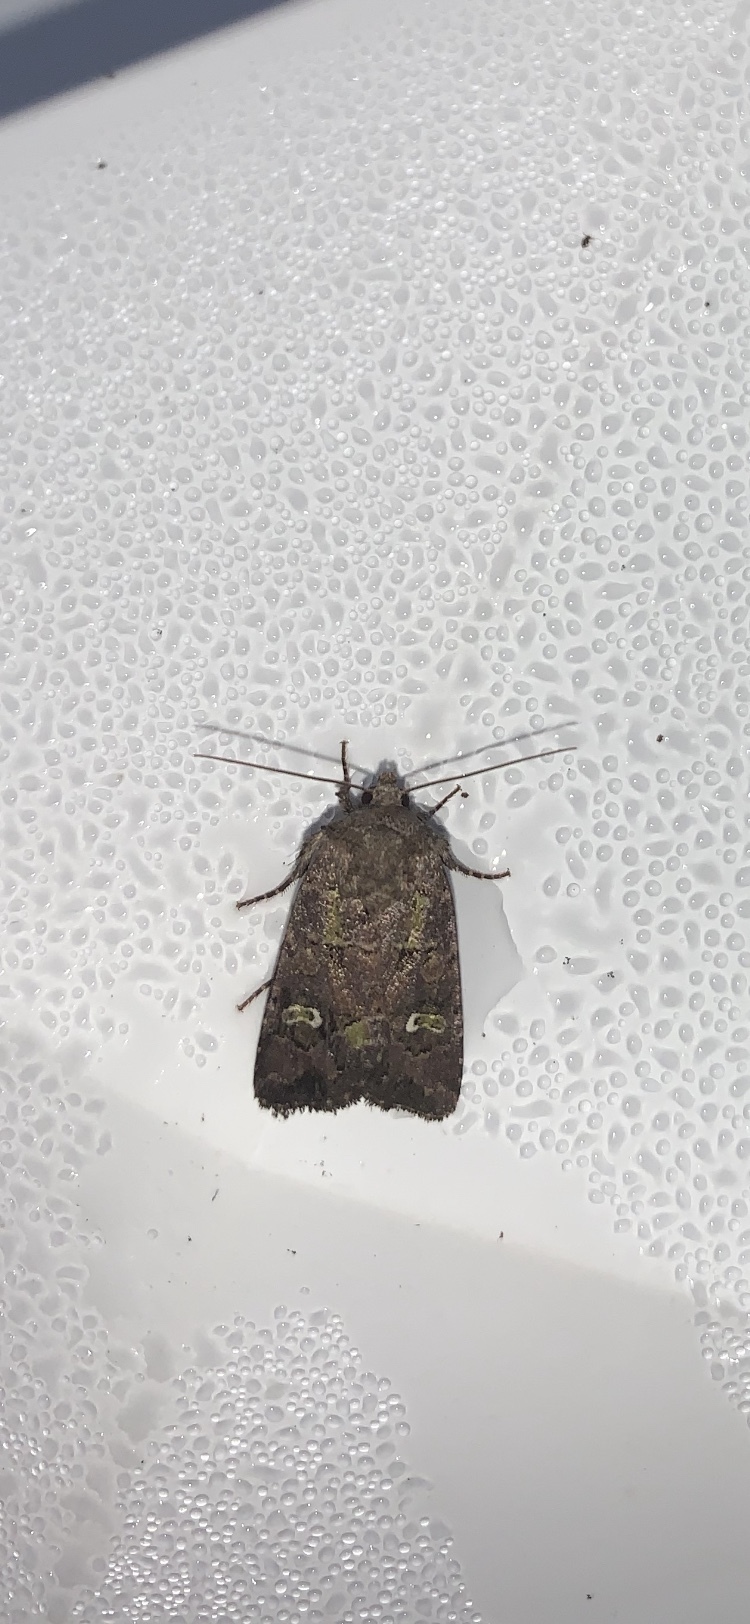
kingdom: Animalia
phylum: Arthropoda
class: Insecta
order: Lepidoptera
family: Noctuidae
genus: Lacinipolia
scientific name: Lacinipolia renigera
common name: Kidney-spotted minor
